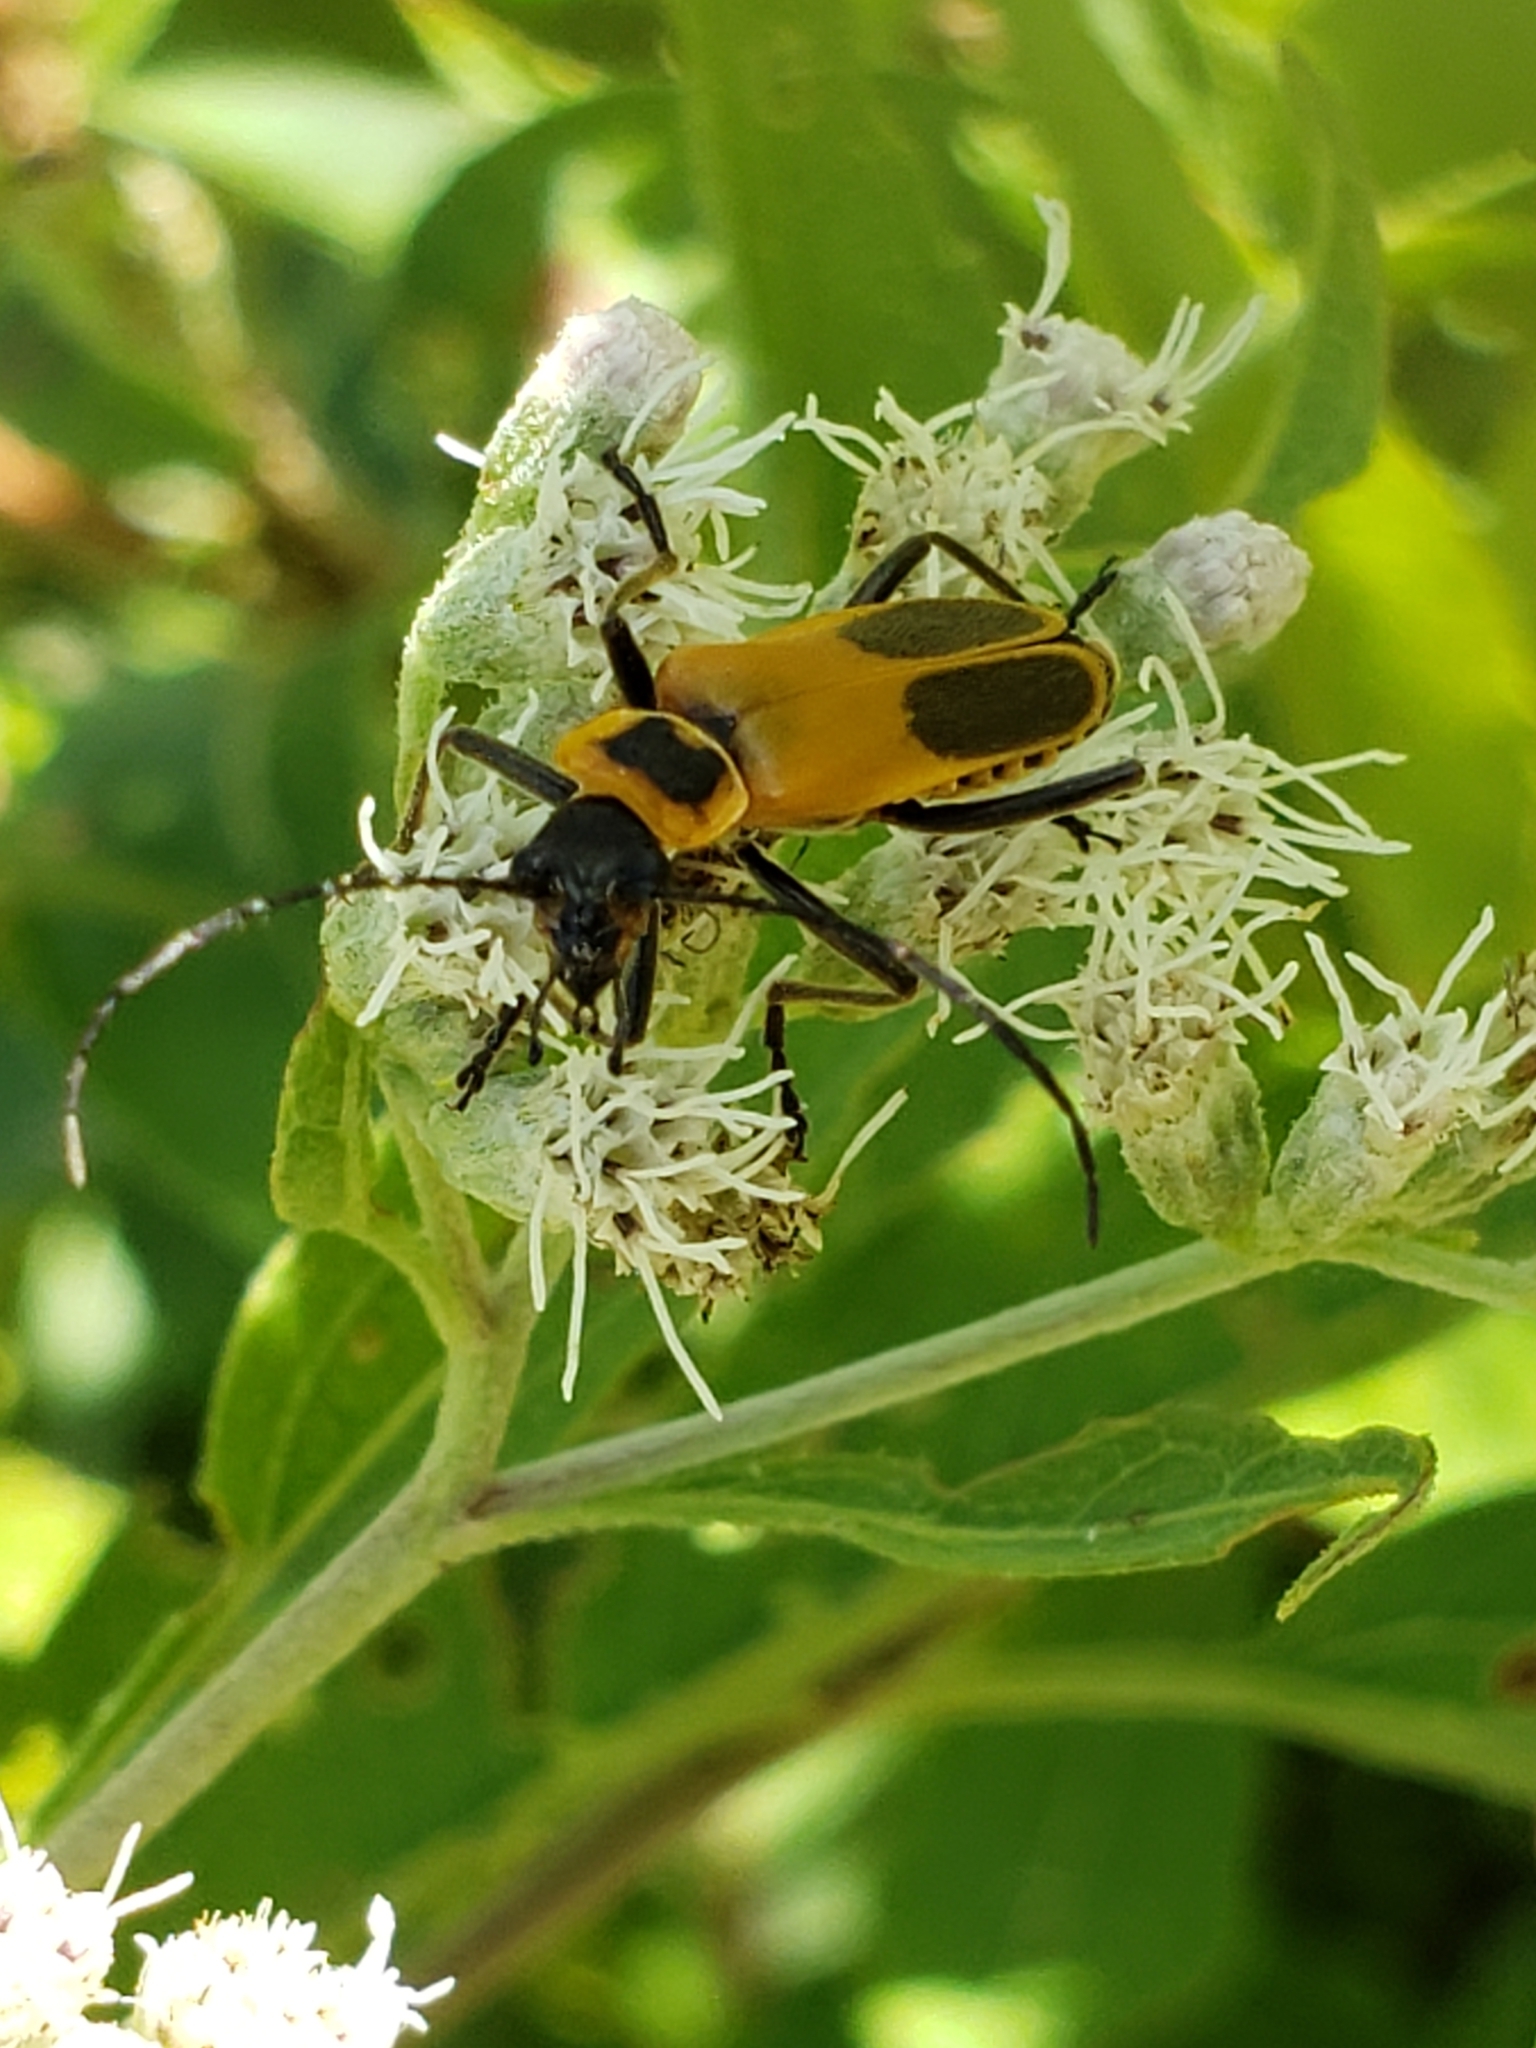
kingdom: Animalia
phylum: Arthropoda
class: Insecta
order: Coleoptera
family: Cantharidae
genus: Chauliognathus
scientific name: Chauliognathus pensylvanicus
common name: Goldenrod soldier beetle
